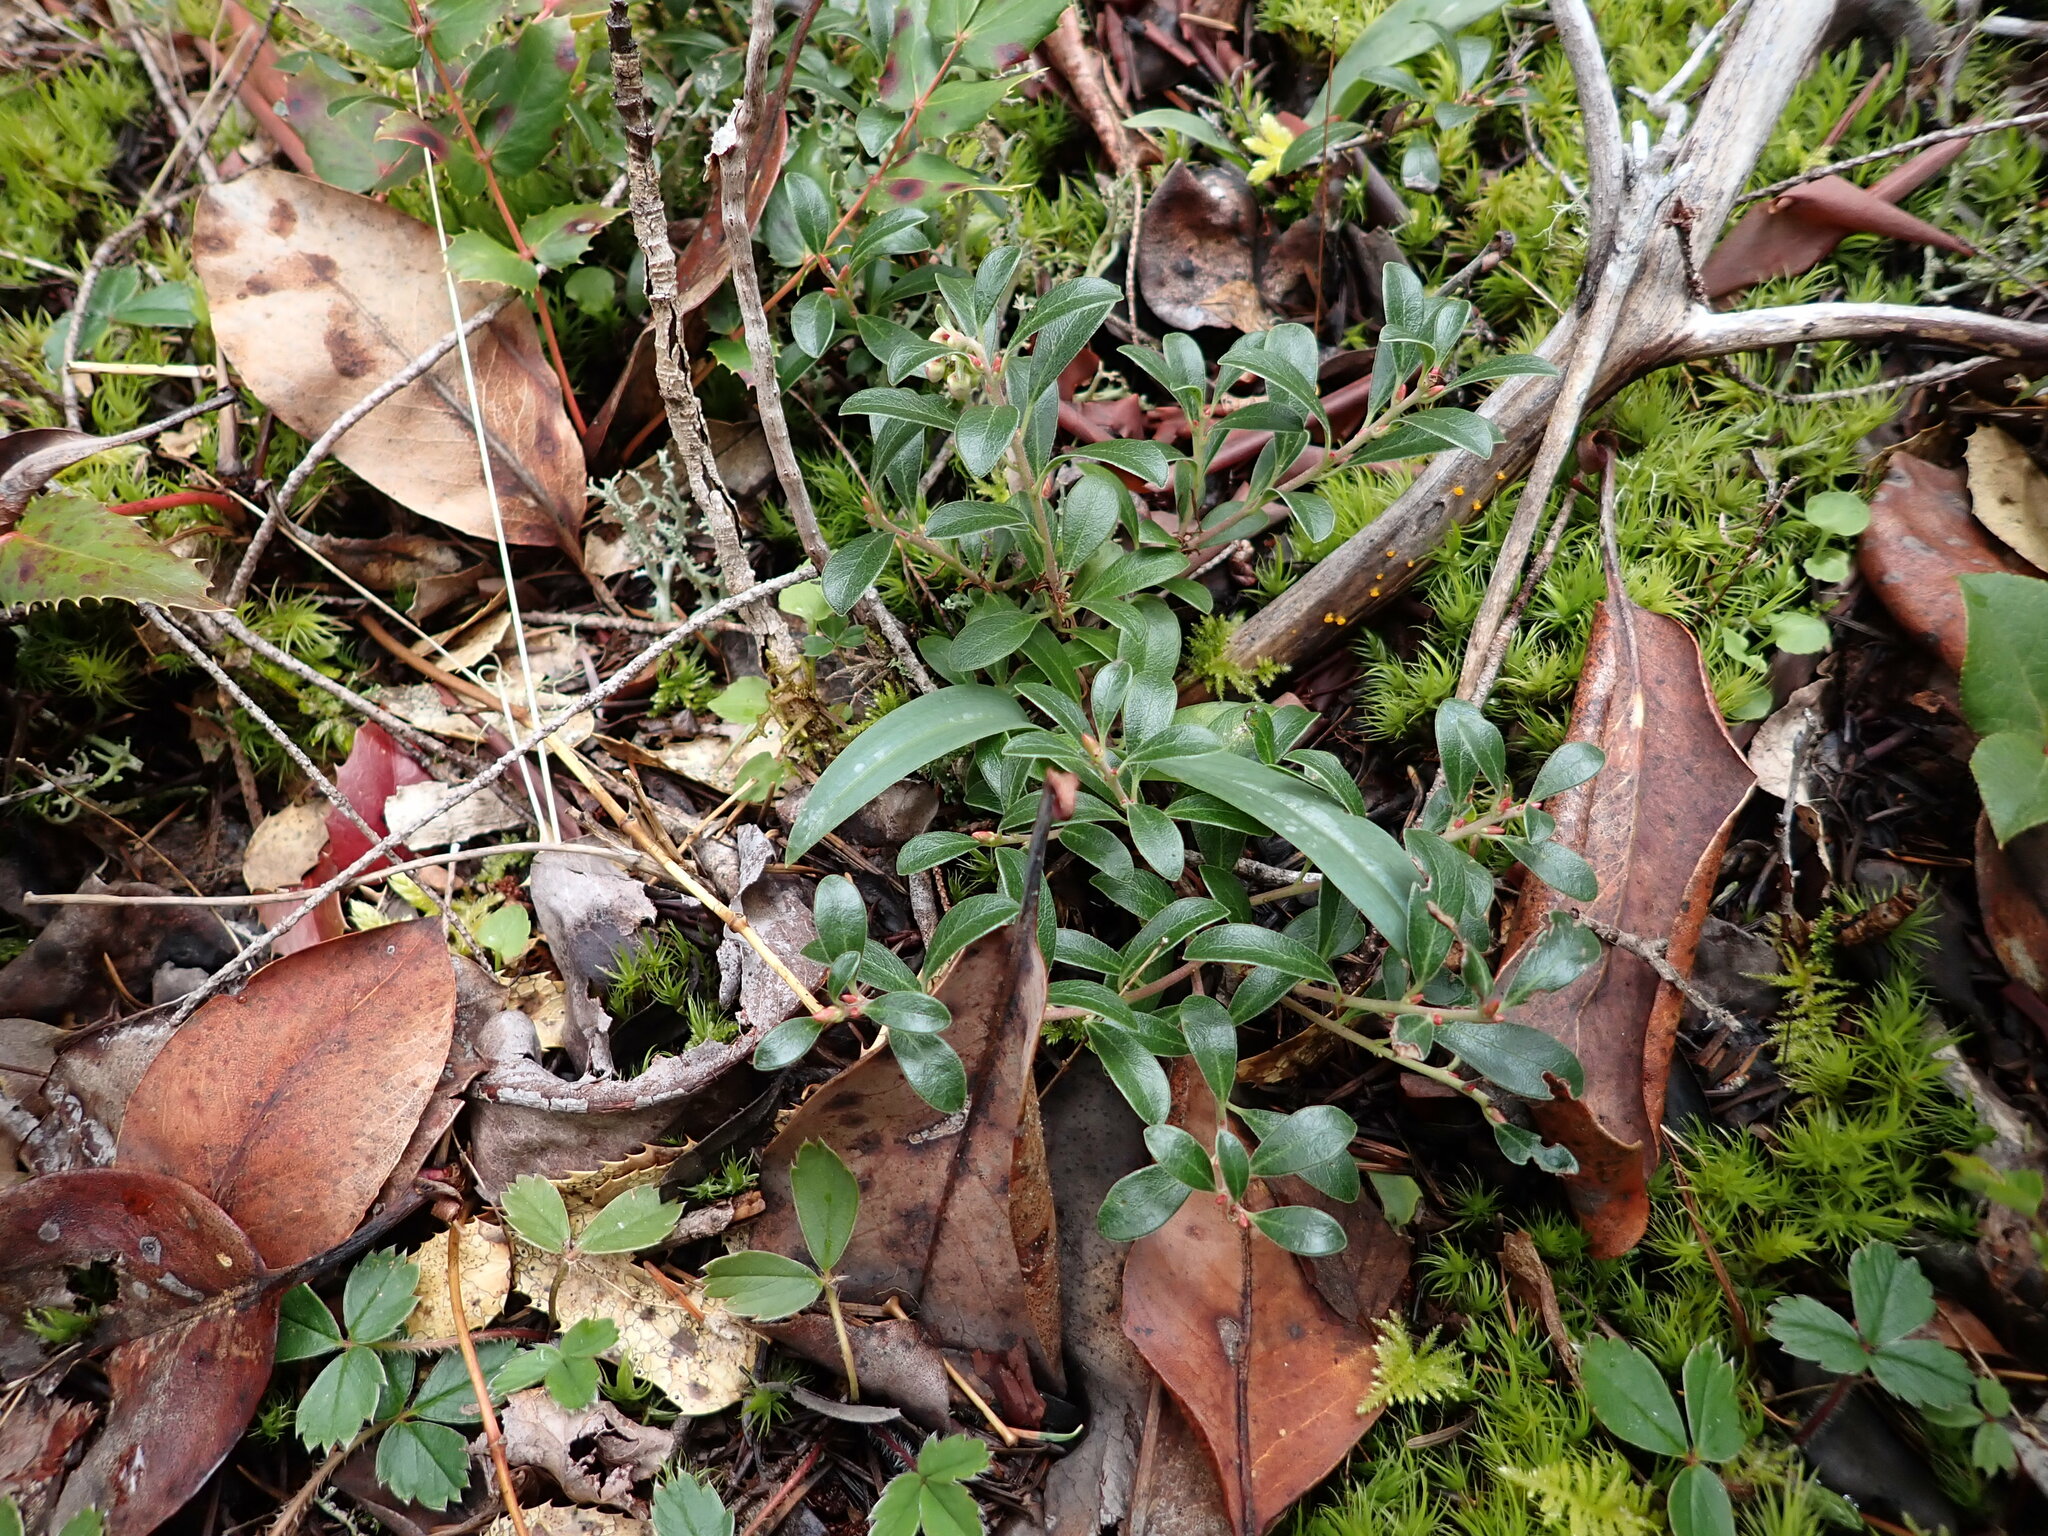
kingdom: Plantae
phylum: Tracheophyta
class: Magnoliopsida
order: Ericales
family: Ericaceae
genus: Arctostaphylos
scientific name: Arctostaphylos uva-ursi
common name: Bearberry
